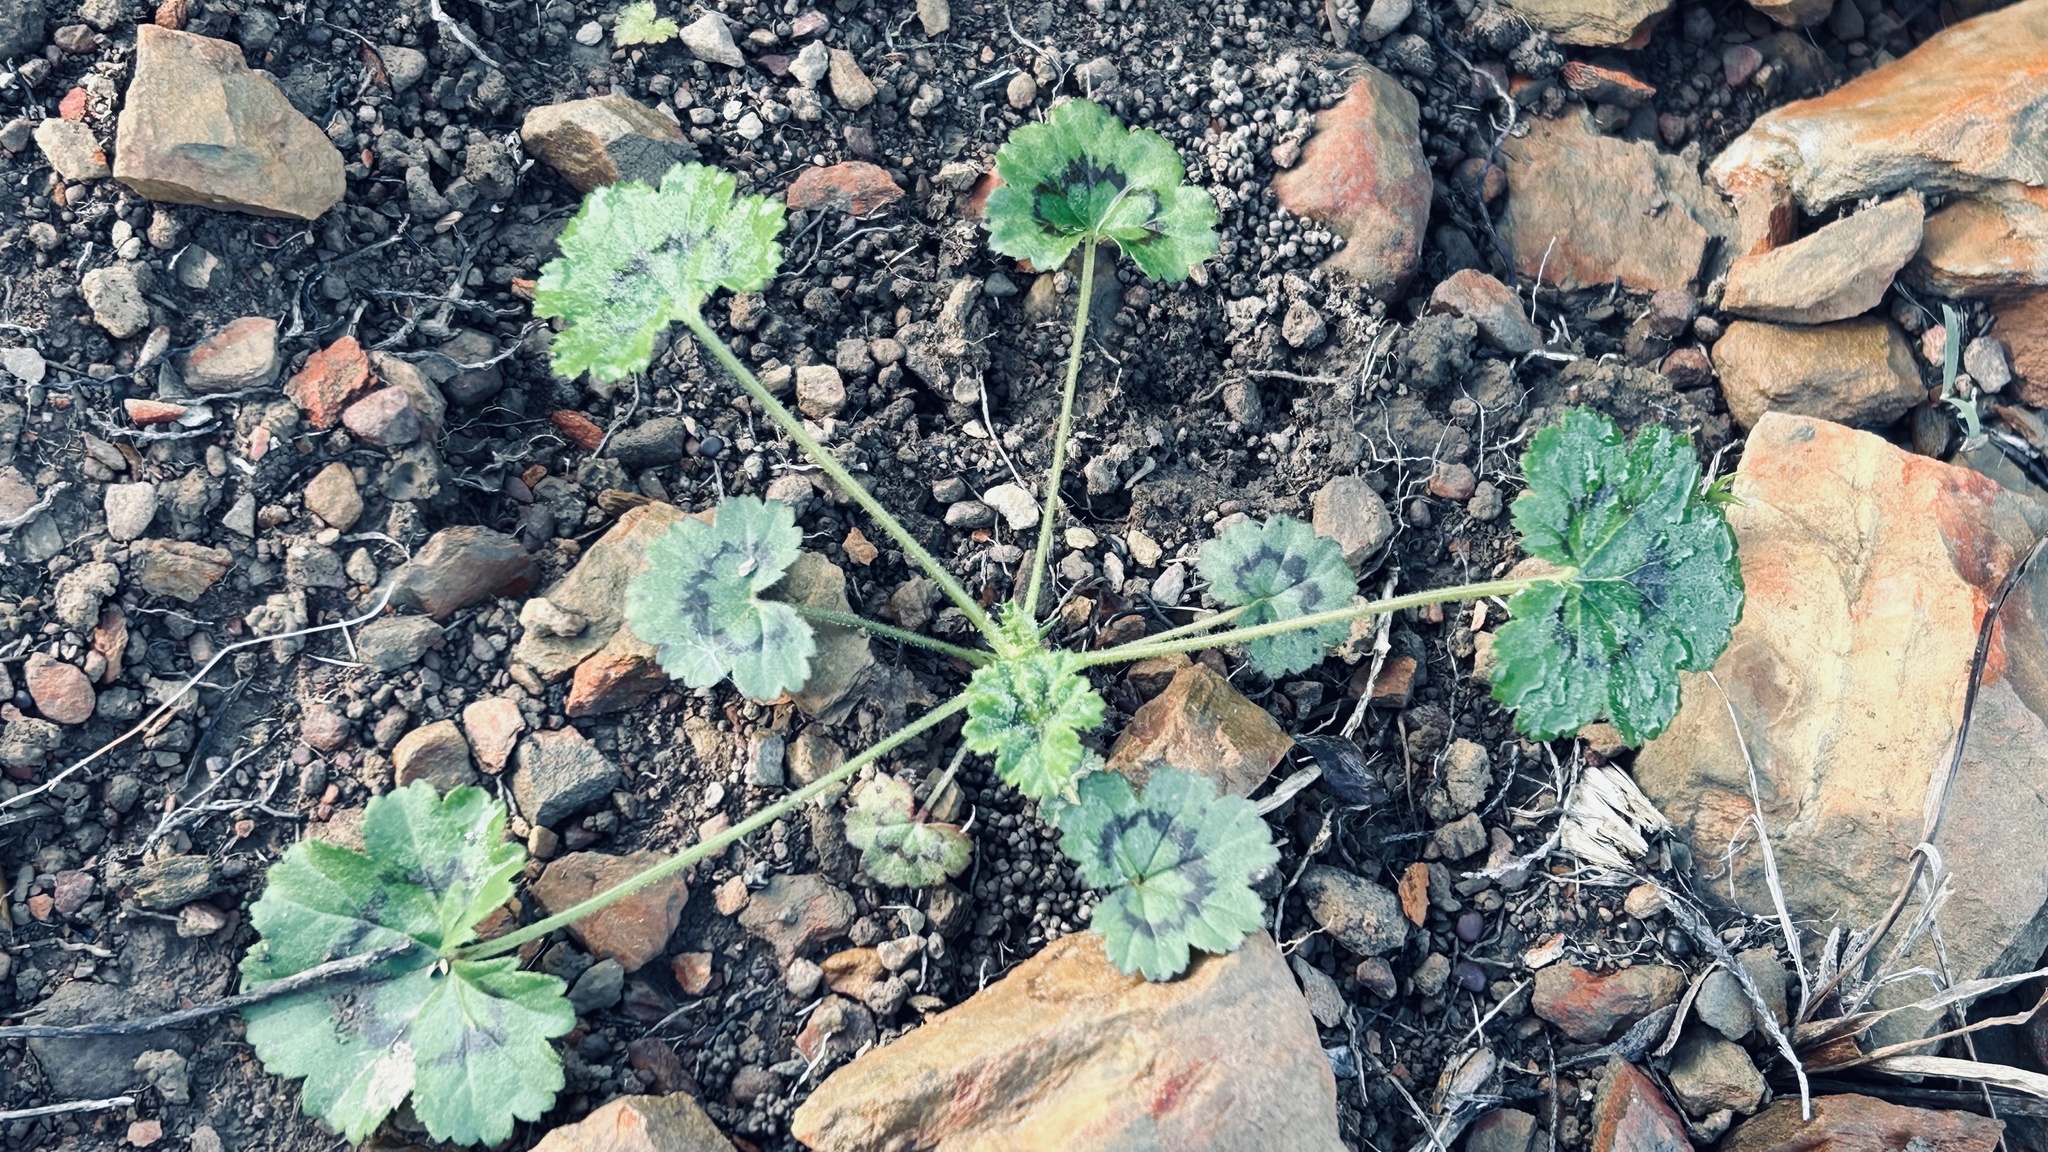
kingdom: Plantae
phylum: Tracheophyta
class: Magnoliopsida
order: Geraniales
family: Geraniaceae
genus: Pelargonium
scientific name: Pelargonium elongatum
